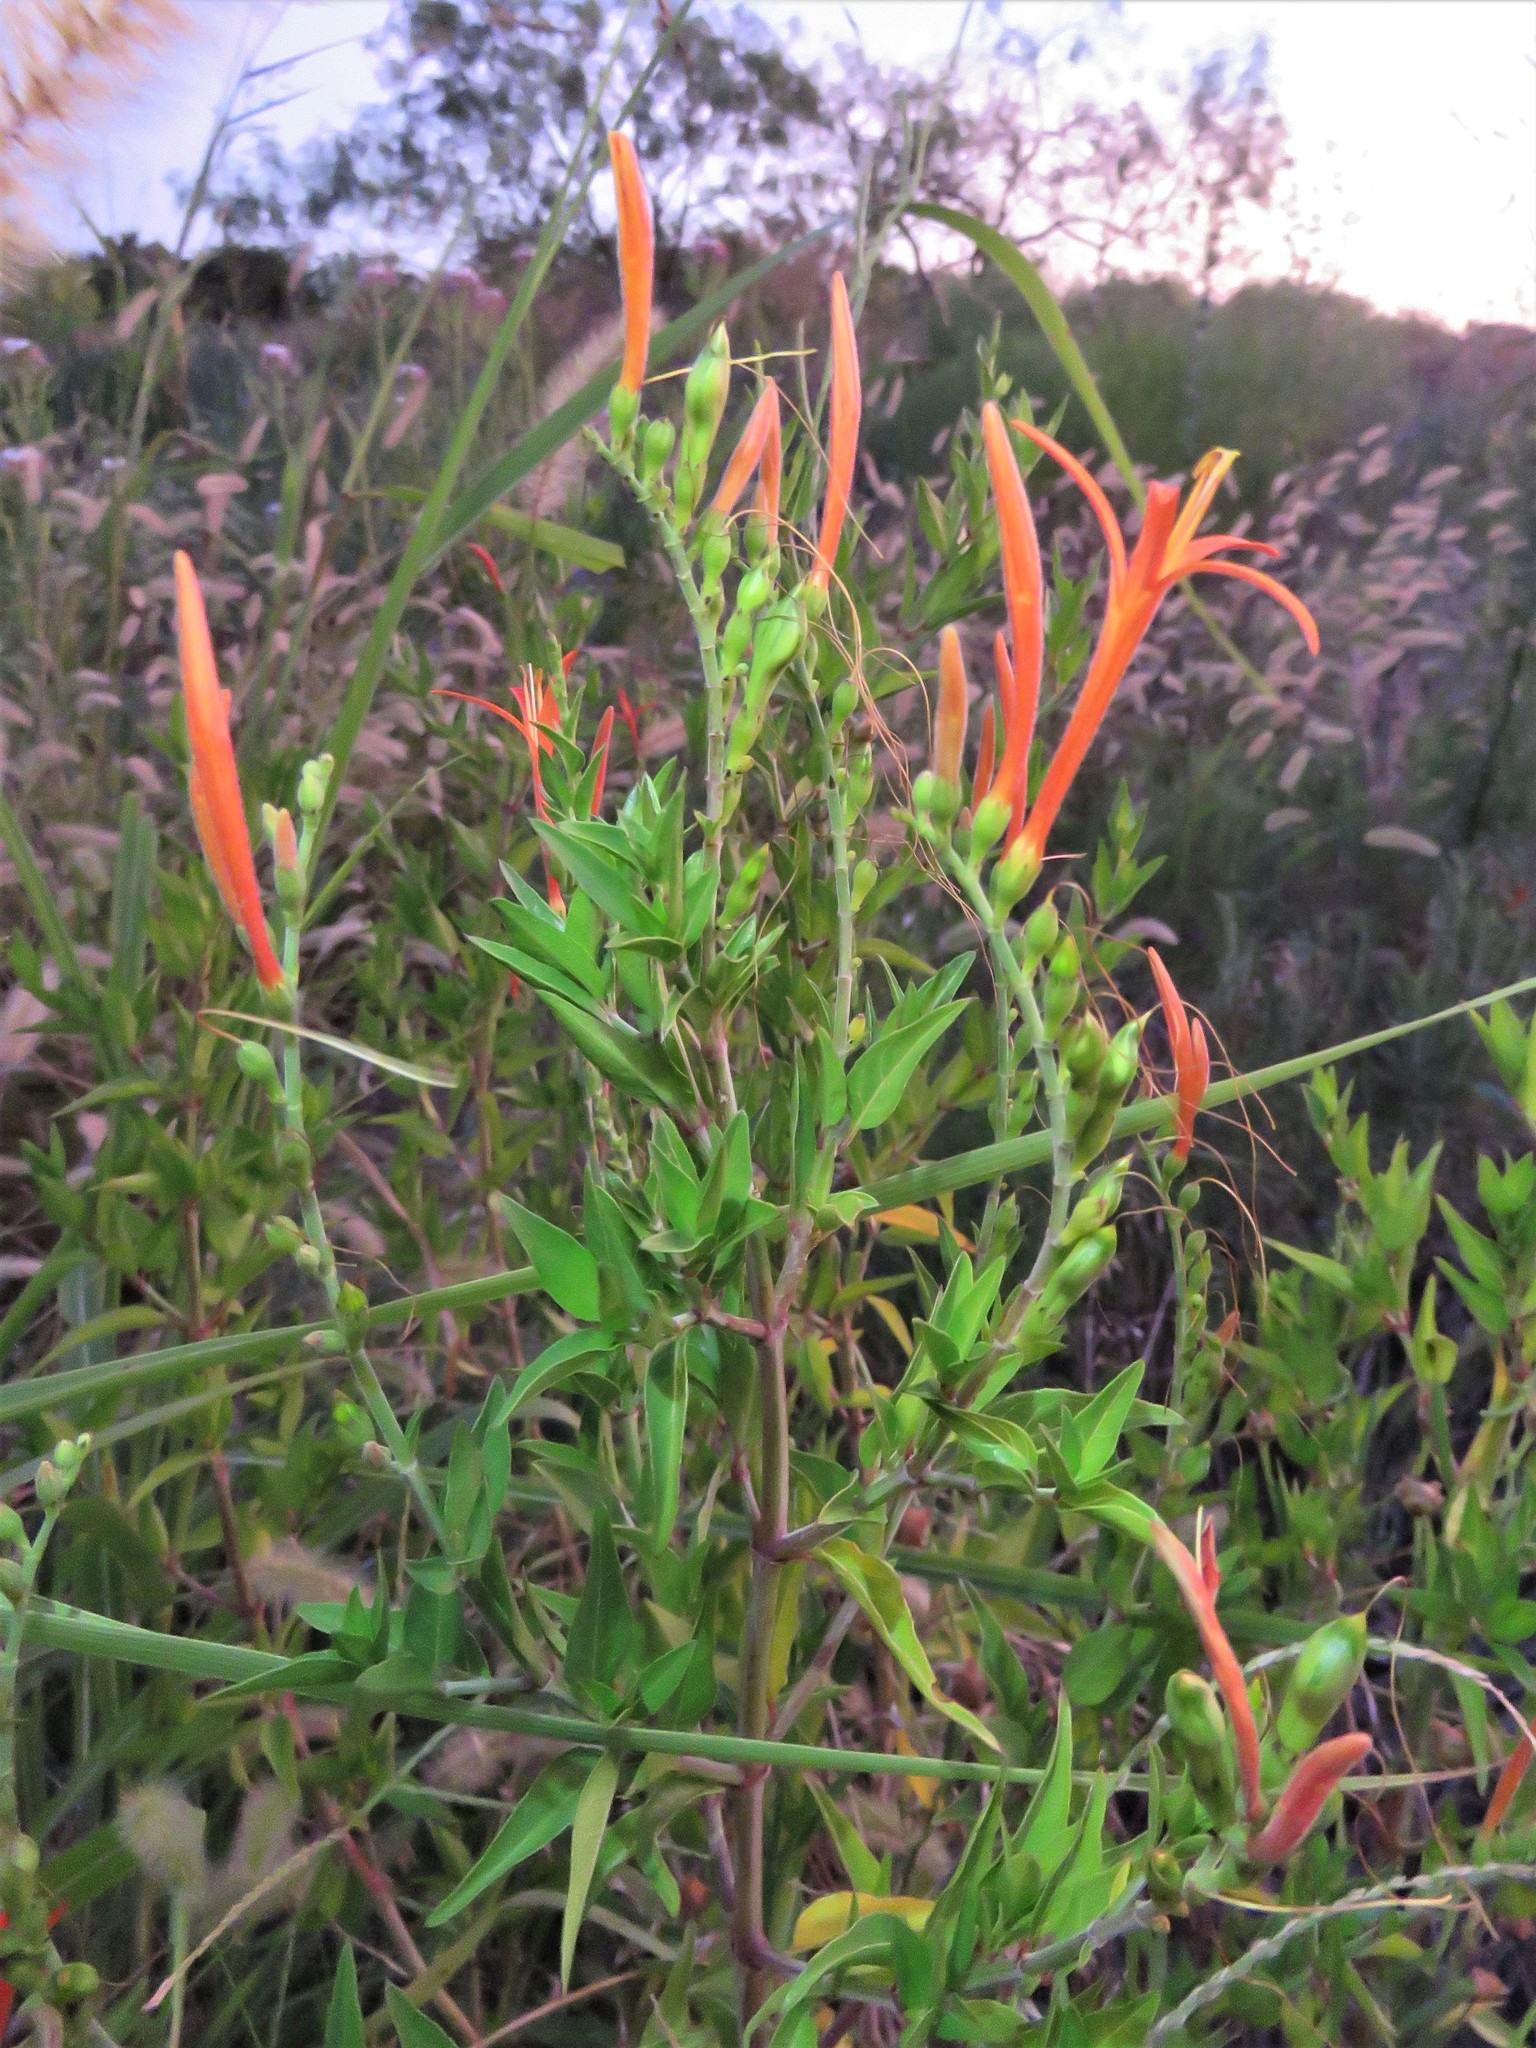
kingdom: Plantae
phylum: Tracheophyta
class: Magnoliopsida
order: Lamiales
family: Acanthaceae
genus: Anisacanthus
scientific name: Anisacanthus quadrifidus
